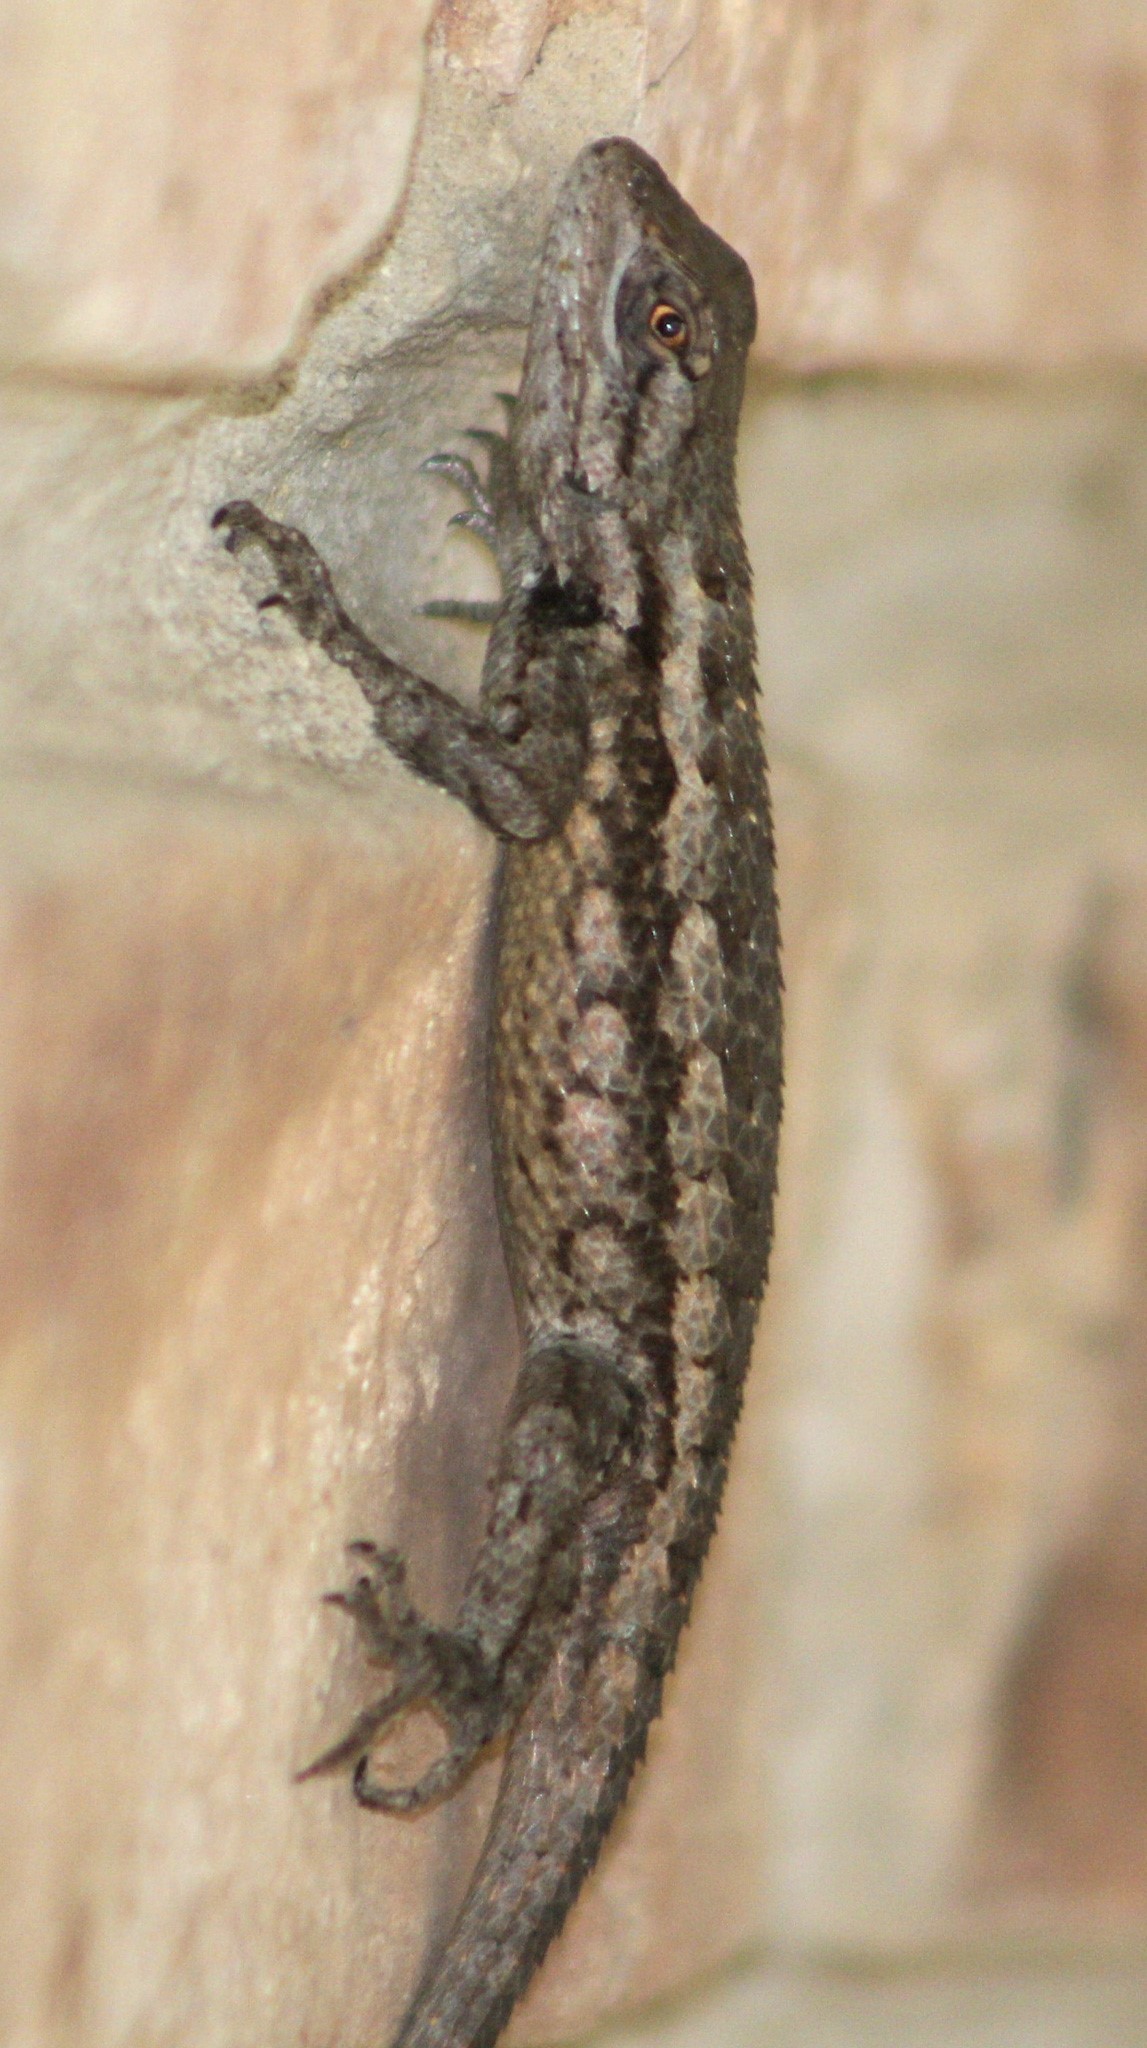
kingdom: Animalia
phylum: Chordata
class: Squamata
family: Phrynosomatidae
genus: Sceloporus
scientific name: Sceloporus olivaceus
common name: Texas spiny lizard
